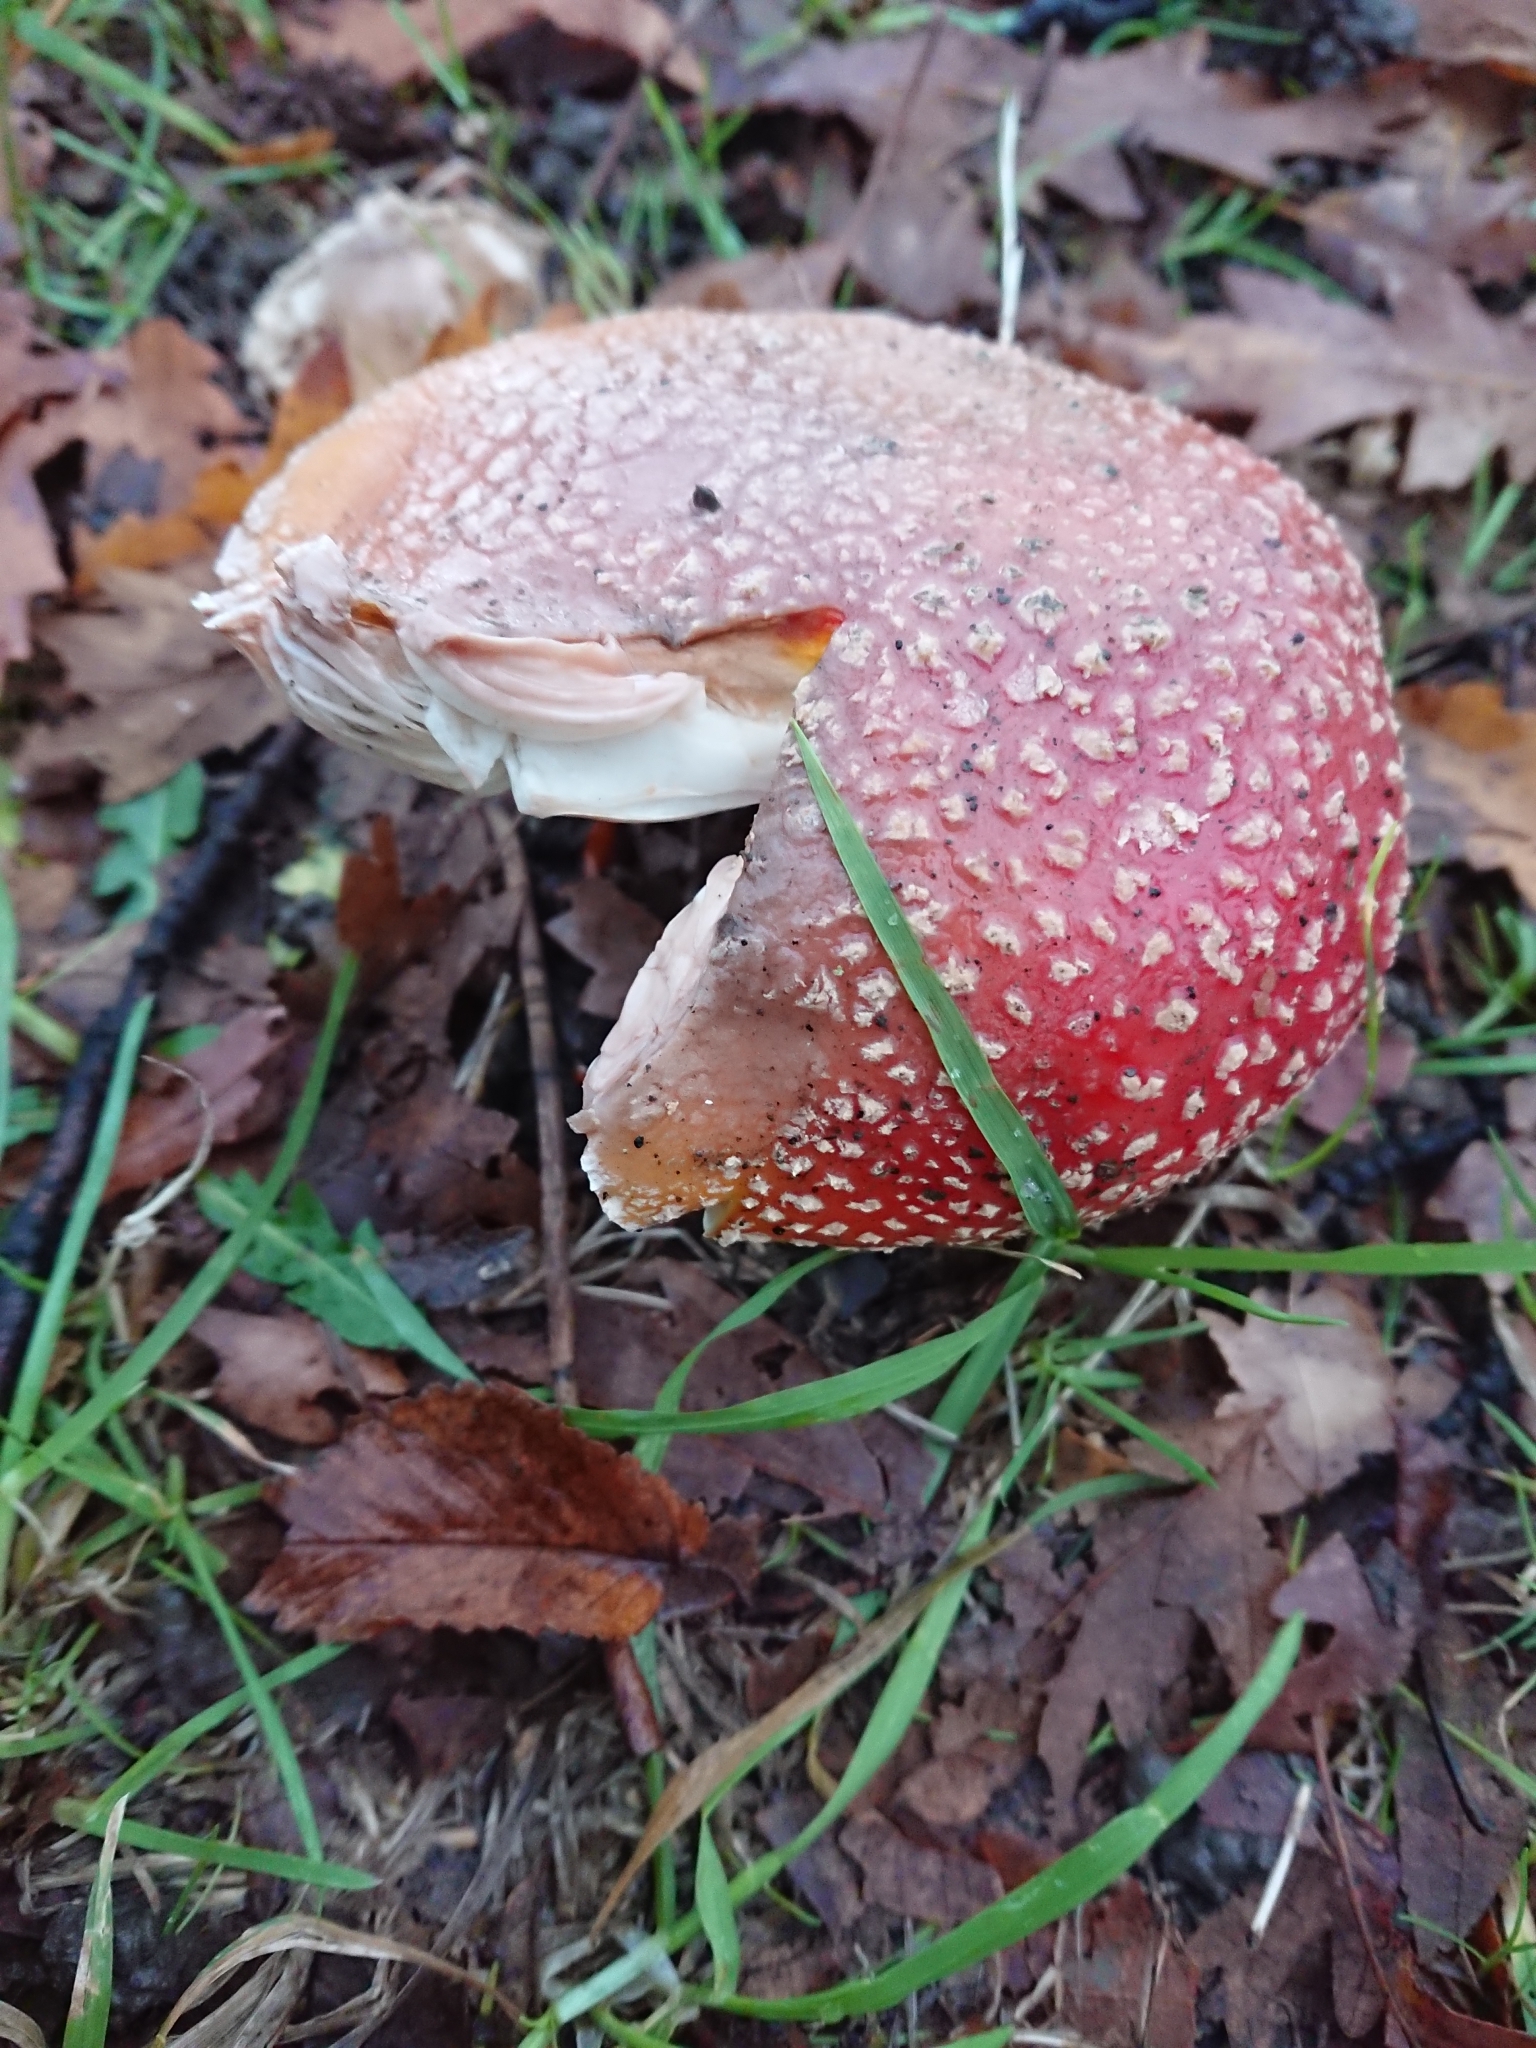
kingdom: Fungi
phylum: Basidiomycota
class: Agaricomycetes
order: Agaricales
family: Amanitaceae
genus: Amanita
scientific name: Amanita muscaria
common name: Fly agaric
